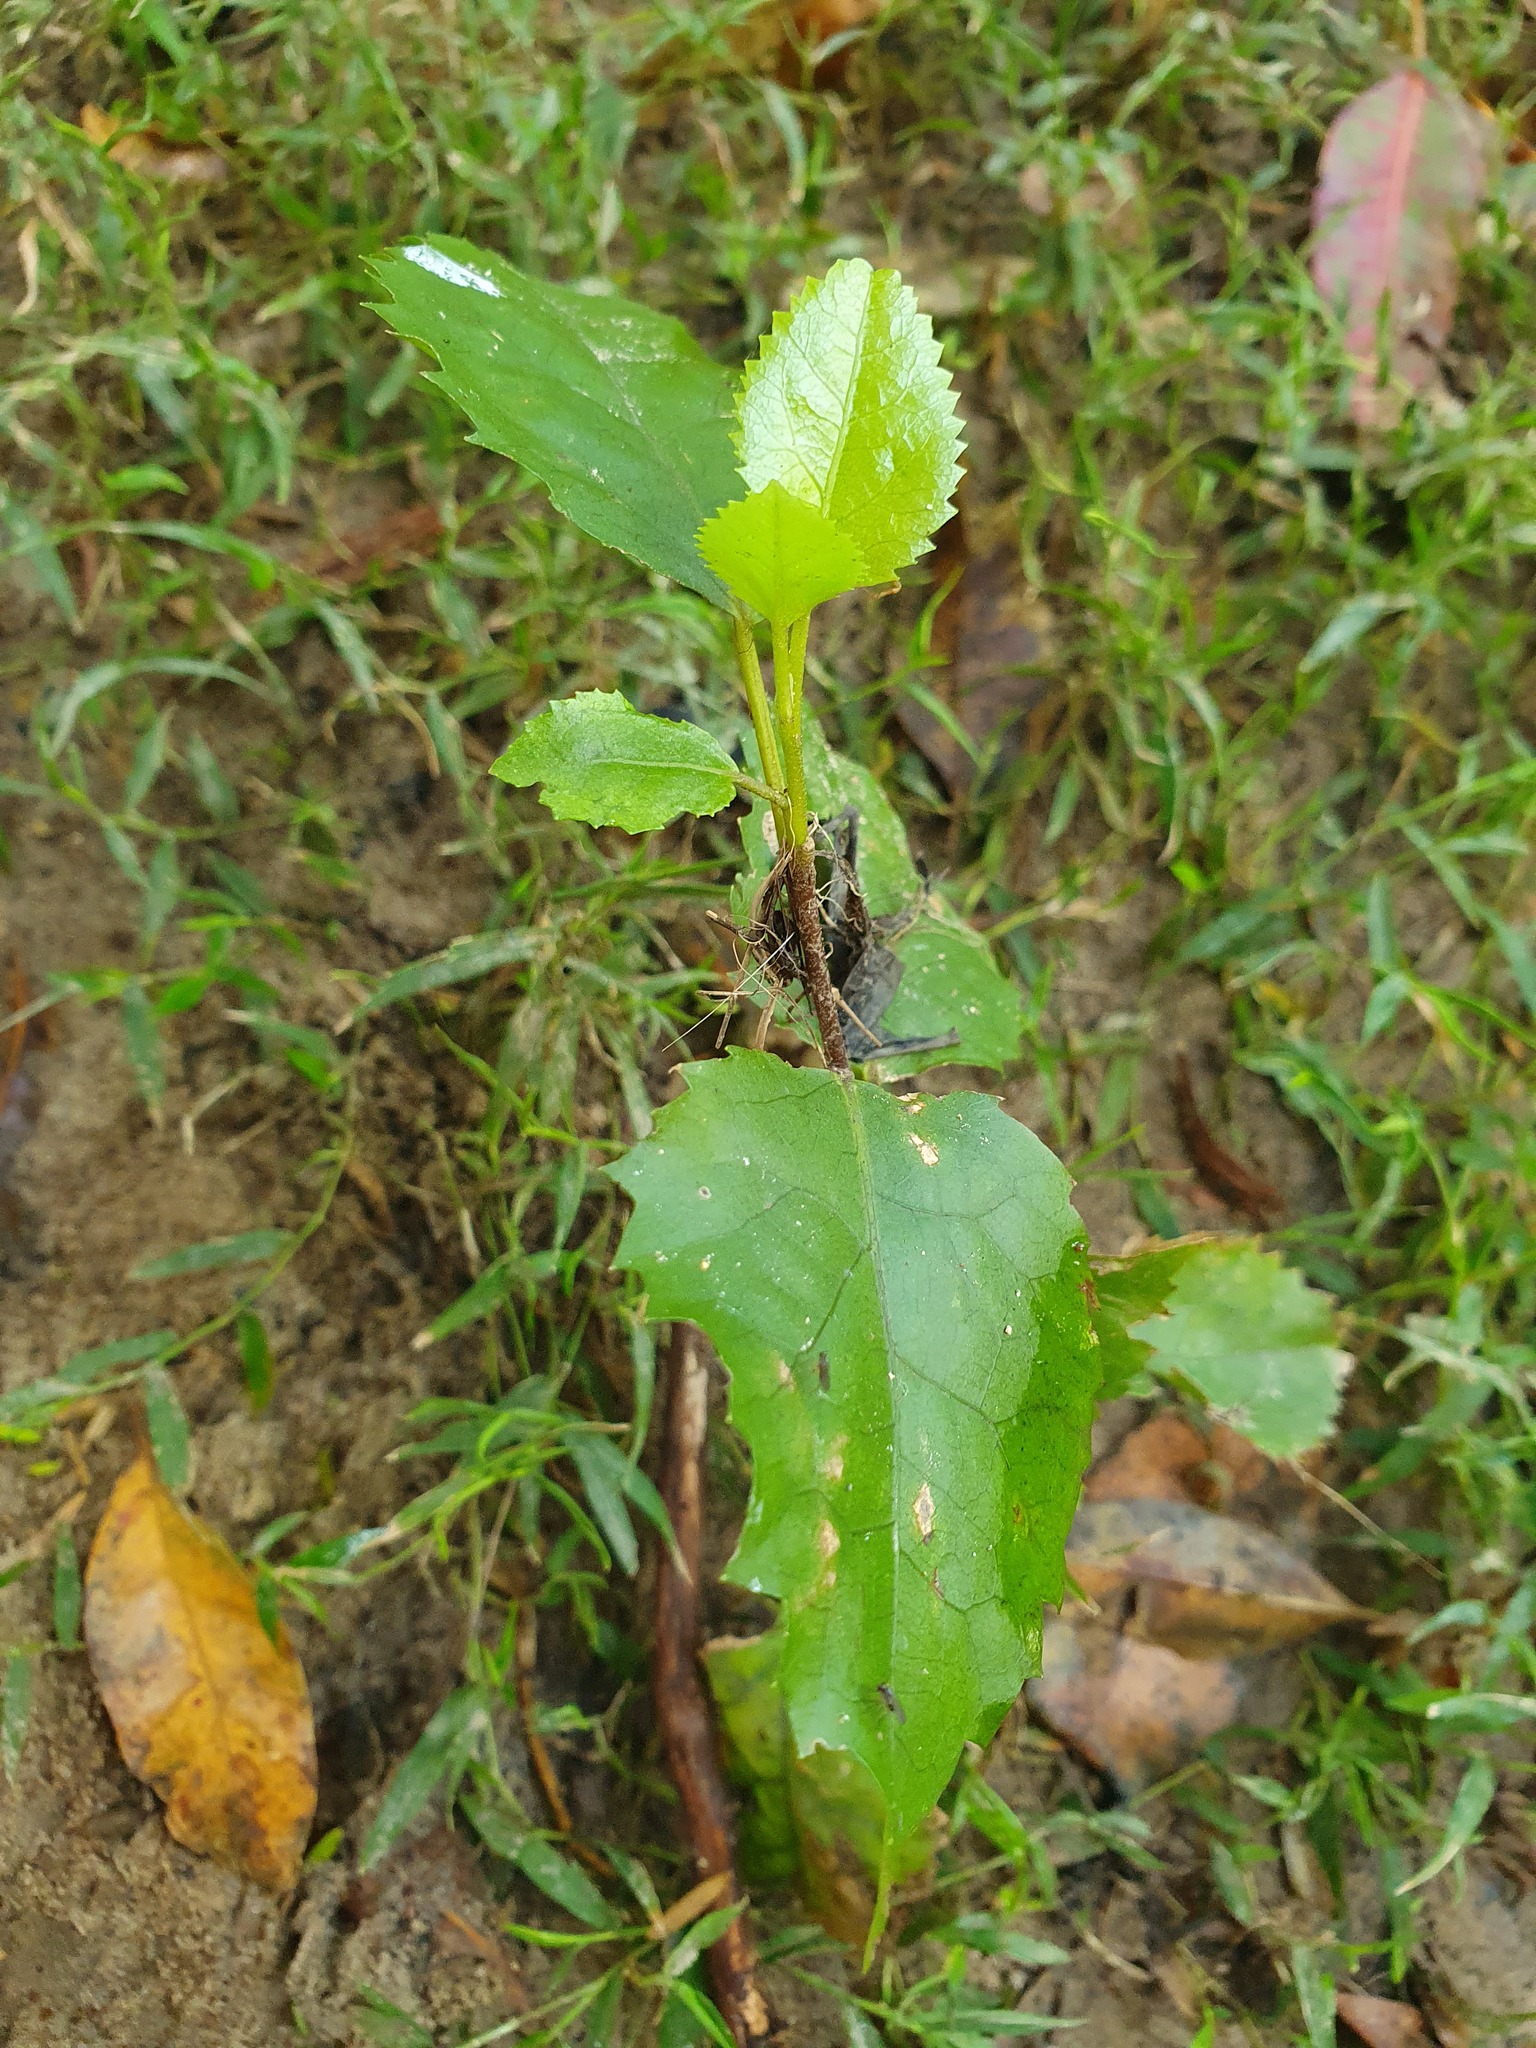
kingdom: Plantae
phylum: Tracheophyta
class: Magnoliopsida
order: Malvales
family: Malvaceae
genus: Hoheria
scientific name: Hoheria populnea
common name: Lacebark
